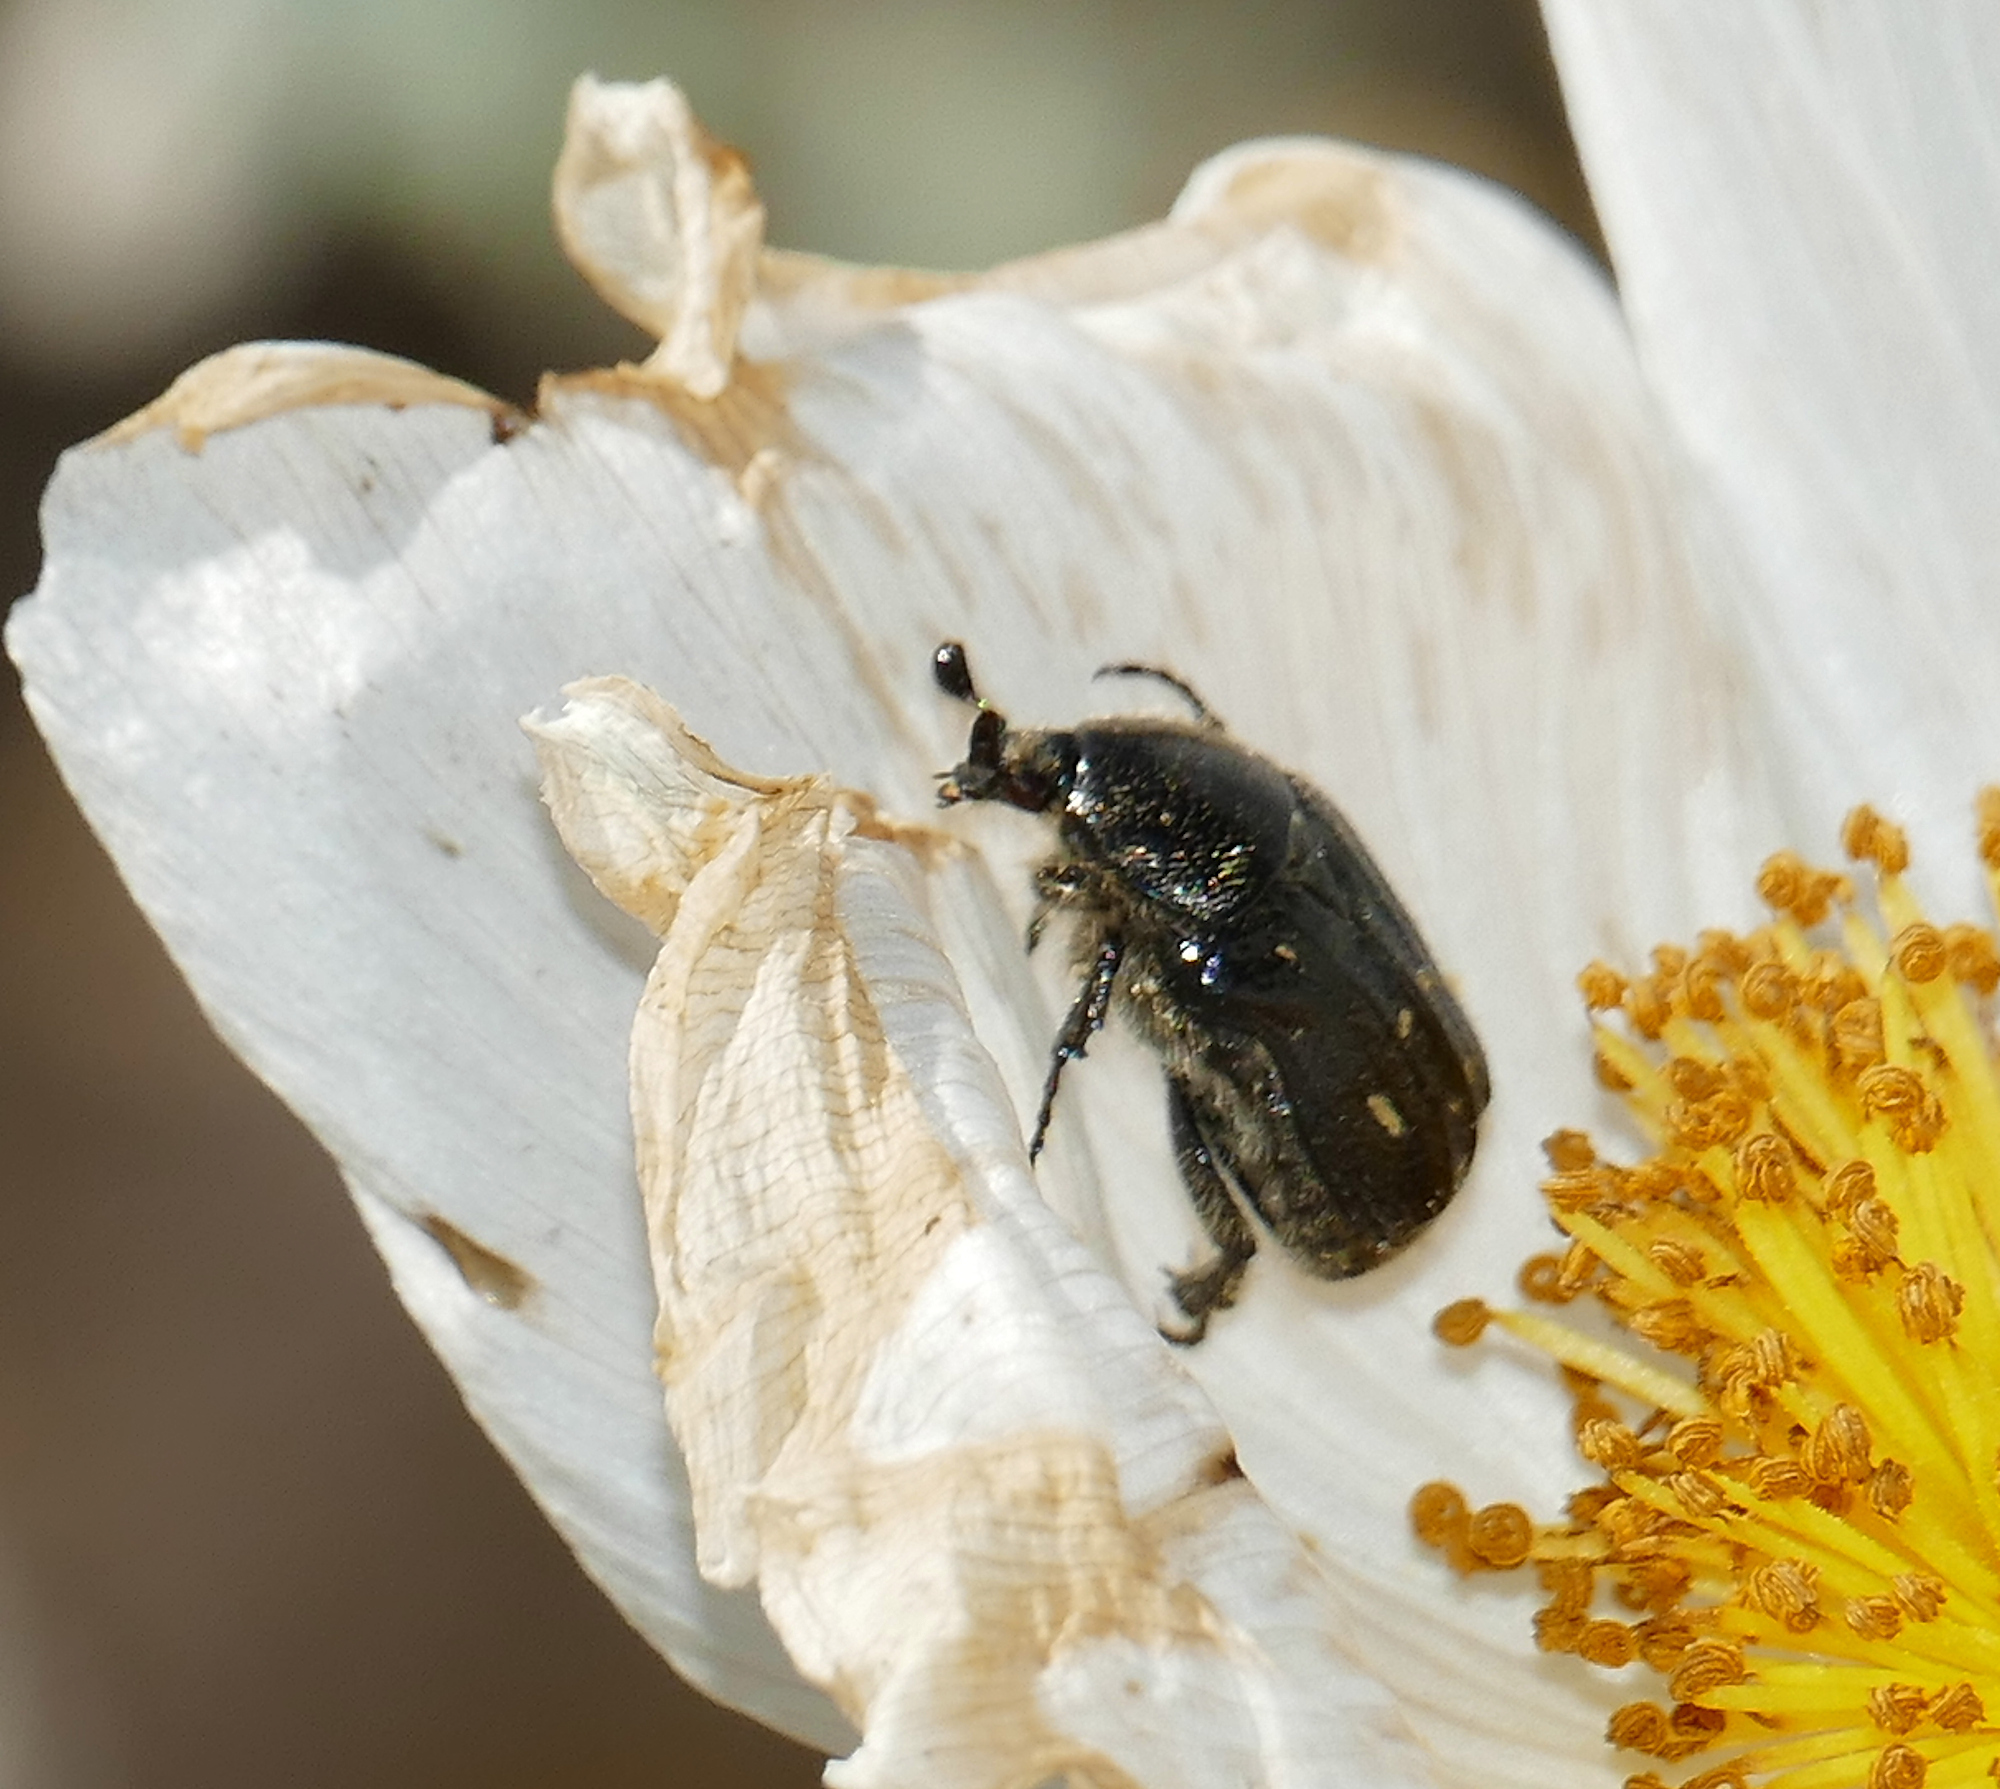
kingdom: Animalia
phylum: Arthropoda
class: Insecta
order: Coleoptera
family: Scarabaeidae
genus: Euphoria
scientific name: Euphoria levinotata
